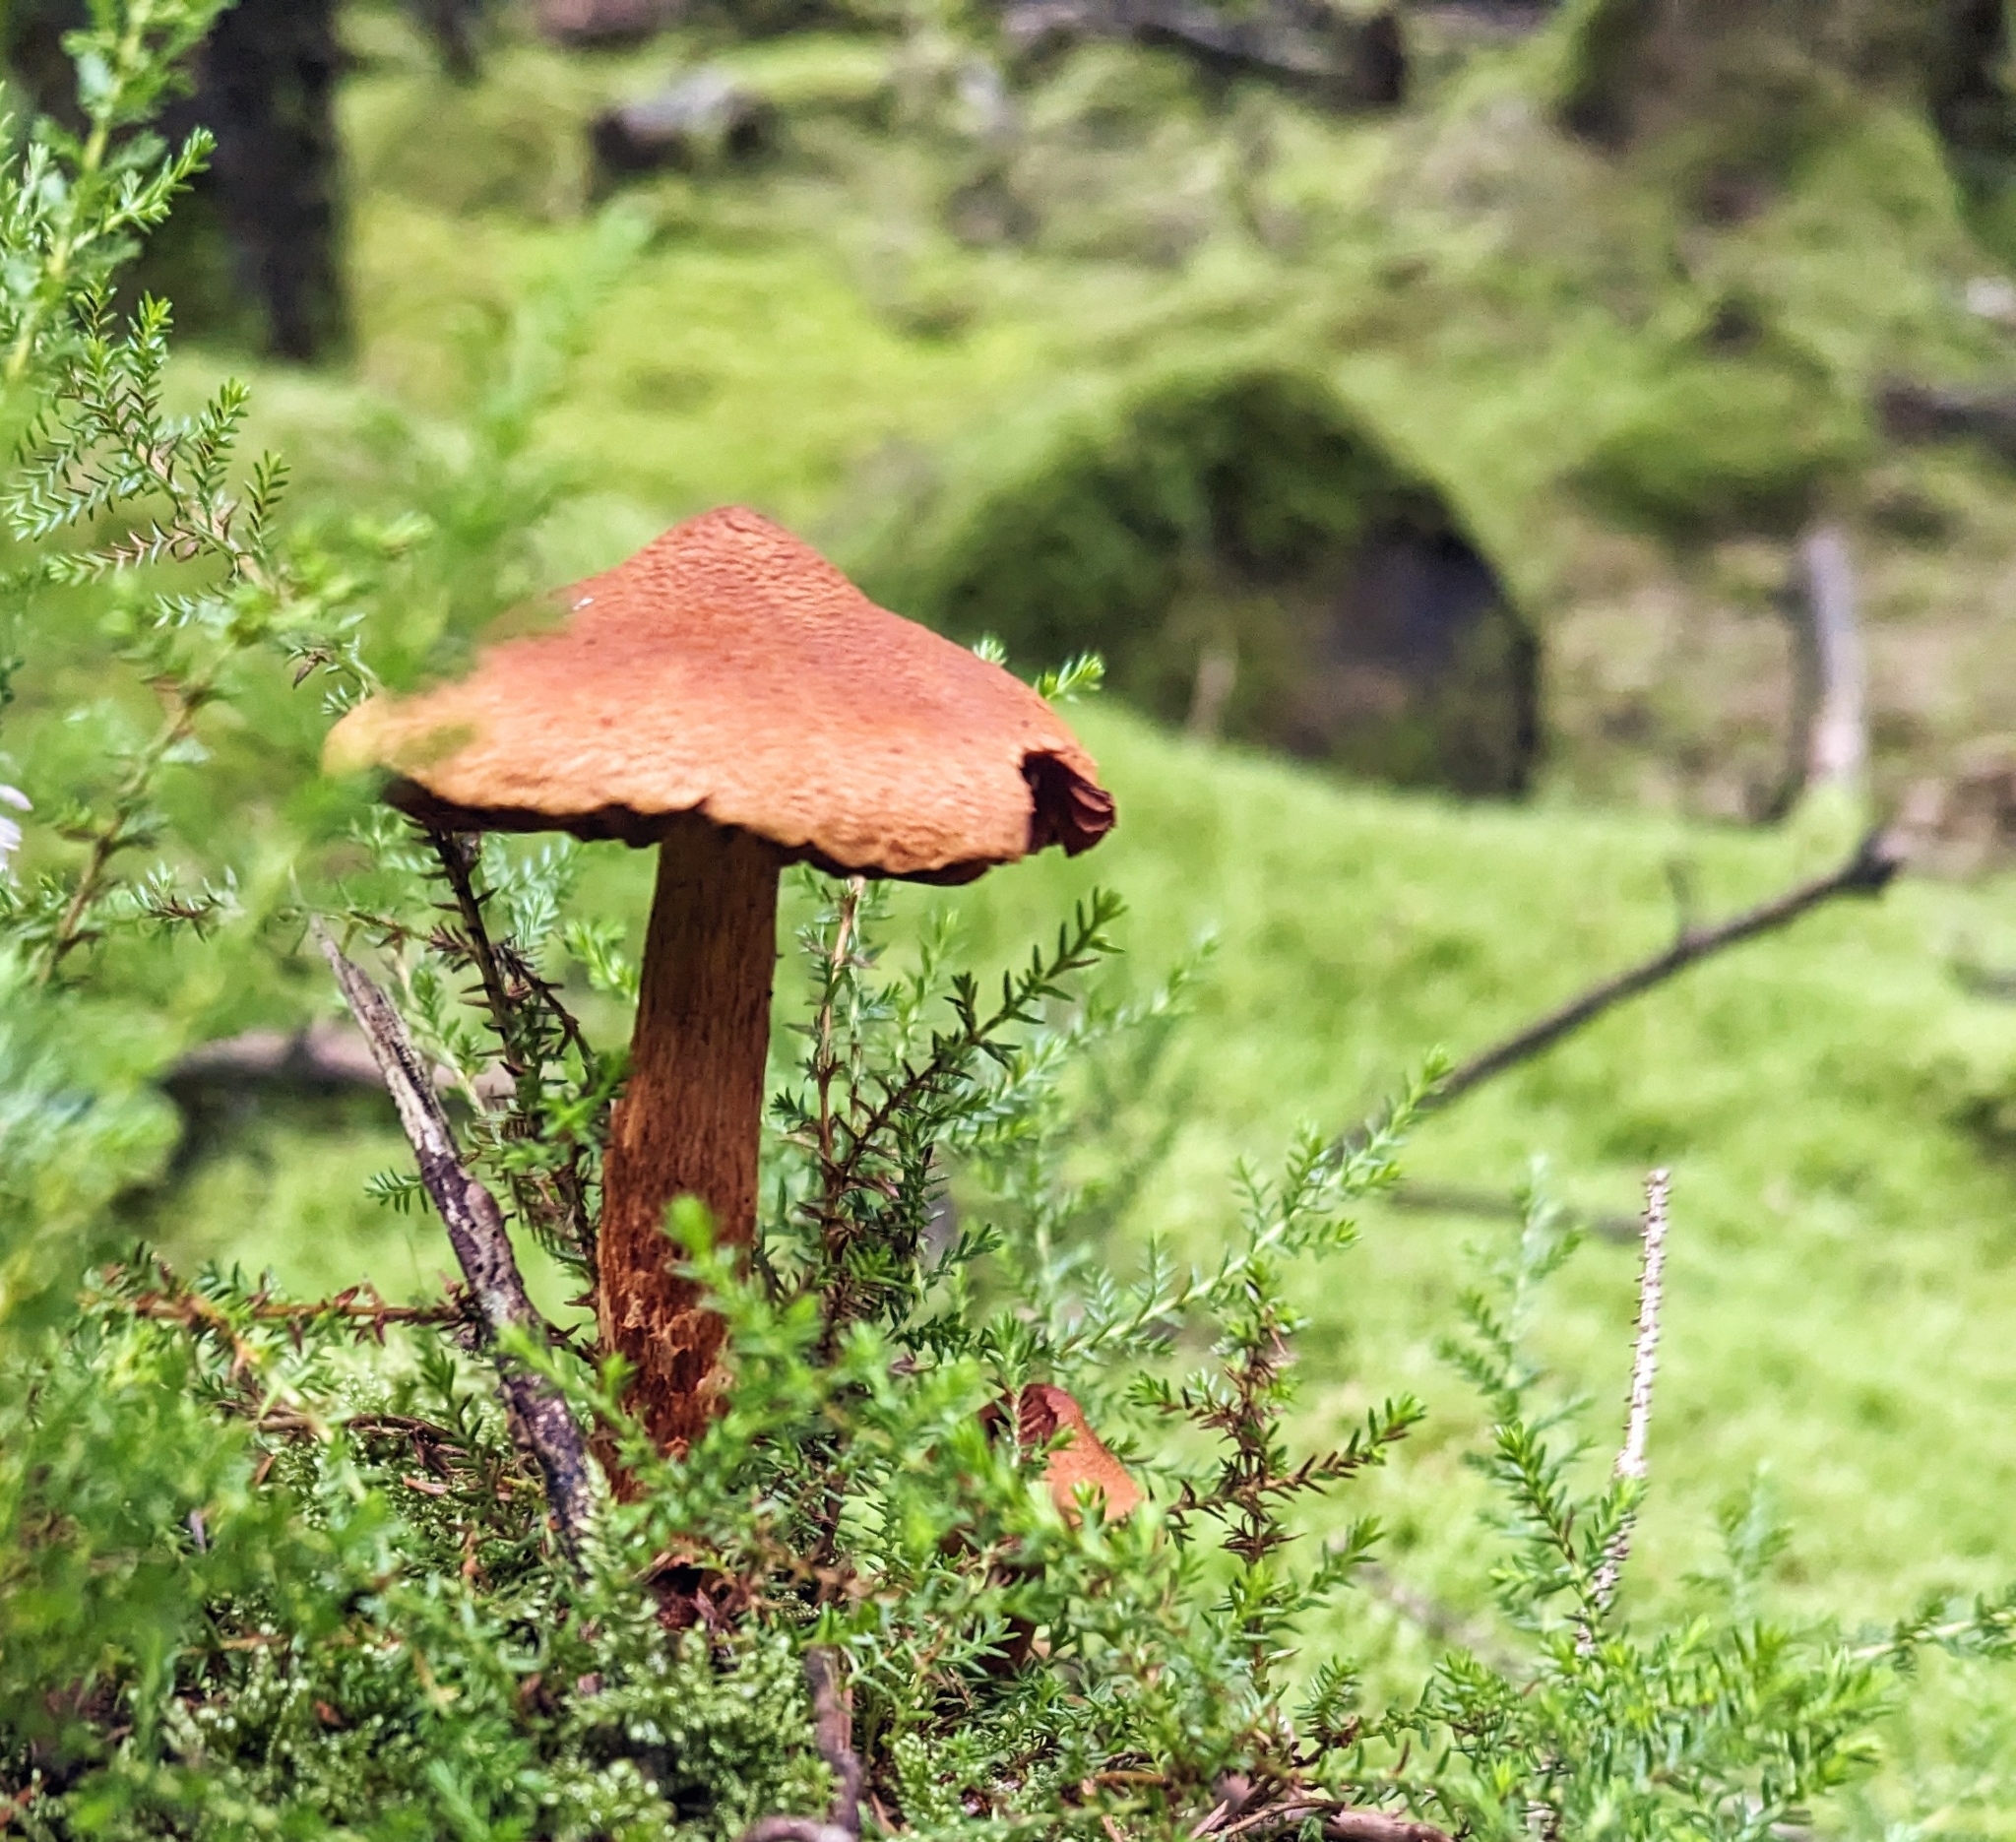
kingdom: Fungi
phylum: Basidiomycota
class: Agaricomycetes
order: Agaricales
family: Cortinariaceae
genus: Cortinarius
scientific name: Cortinarius rubellus
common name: Deadly webcap
